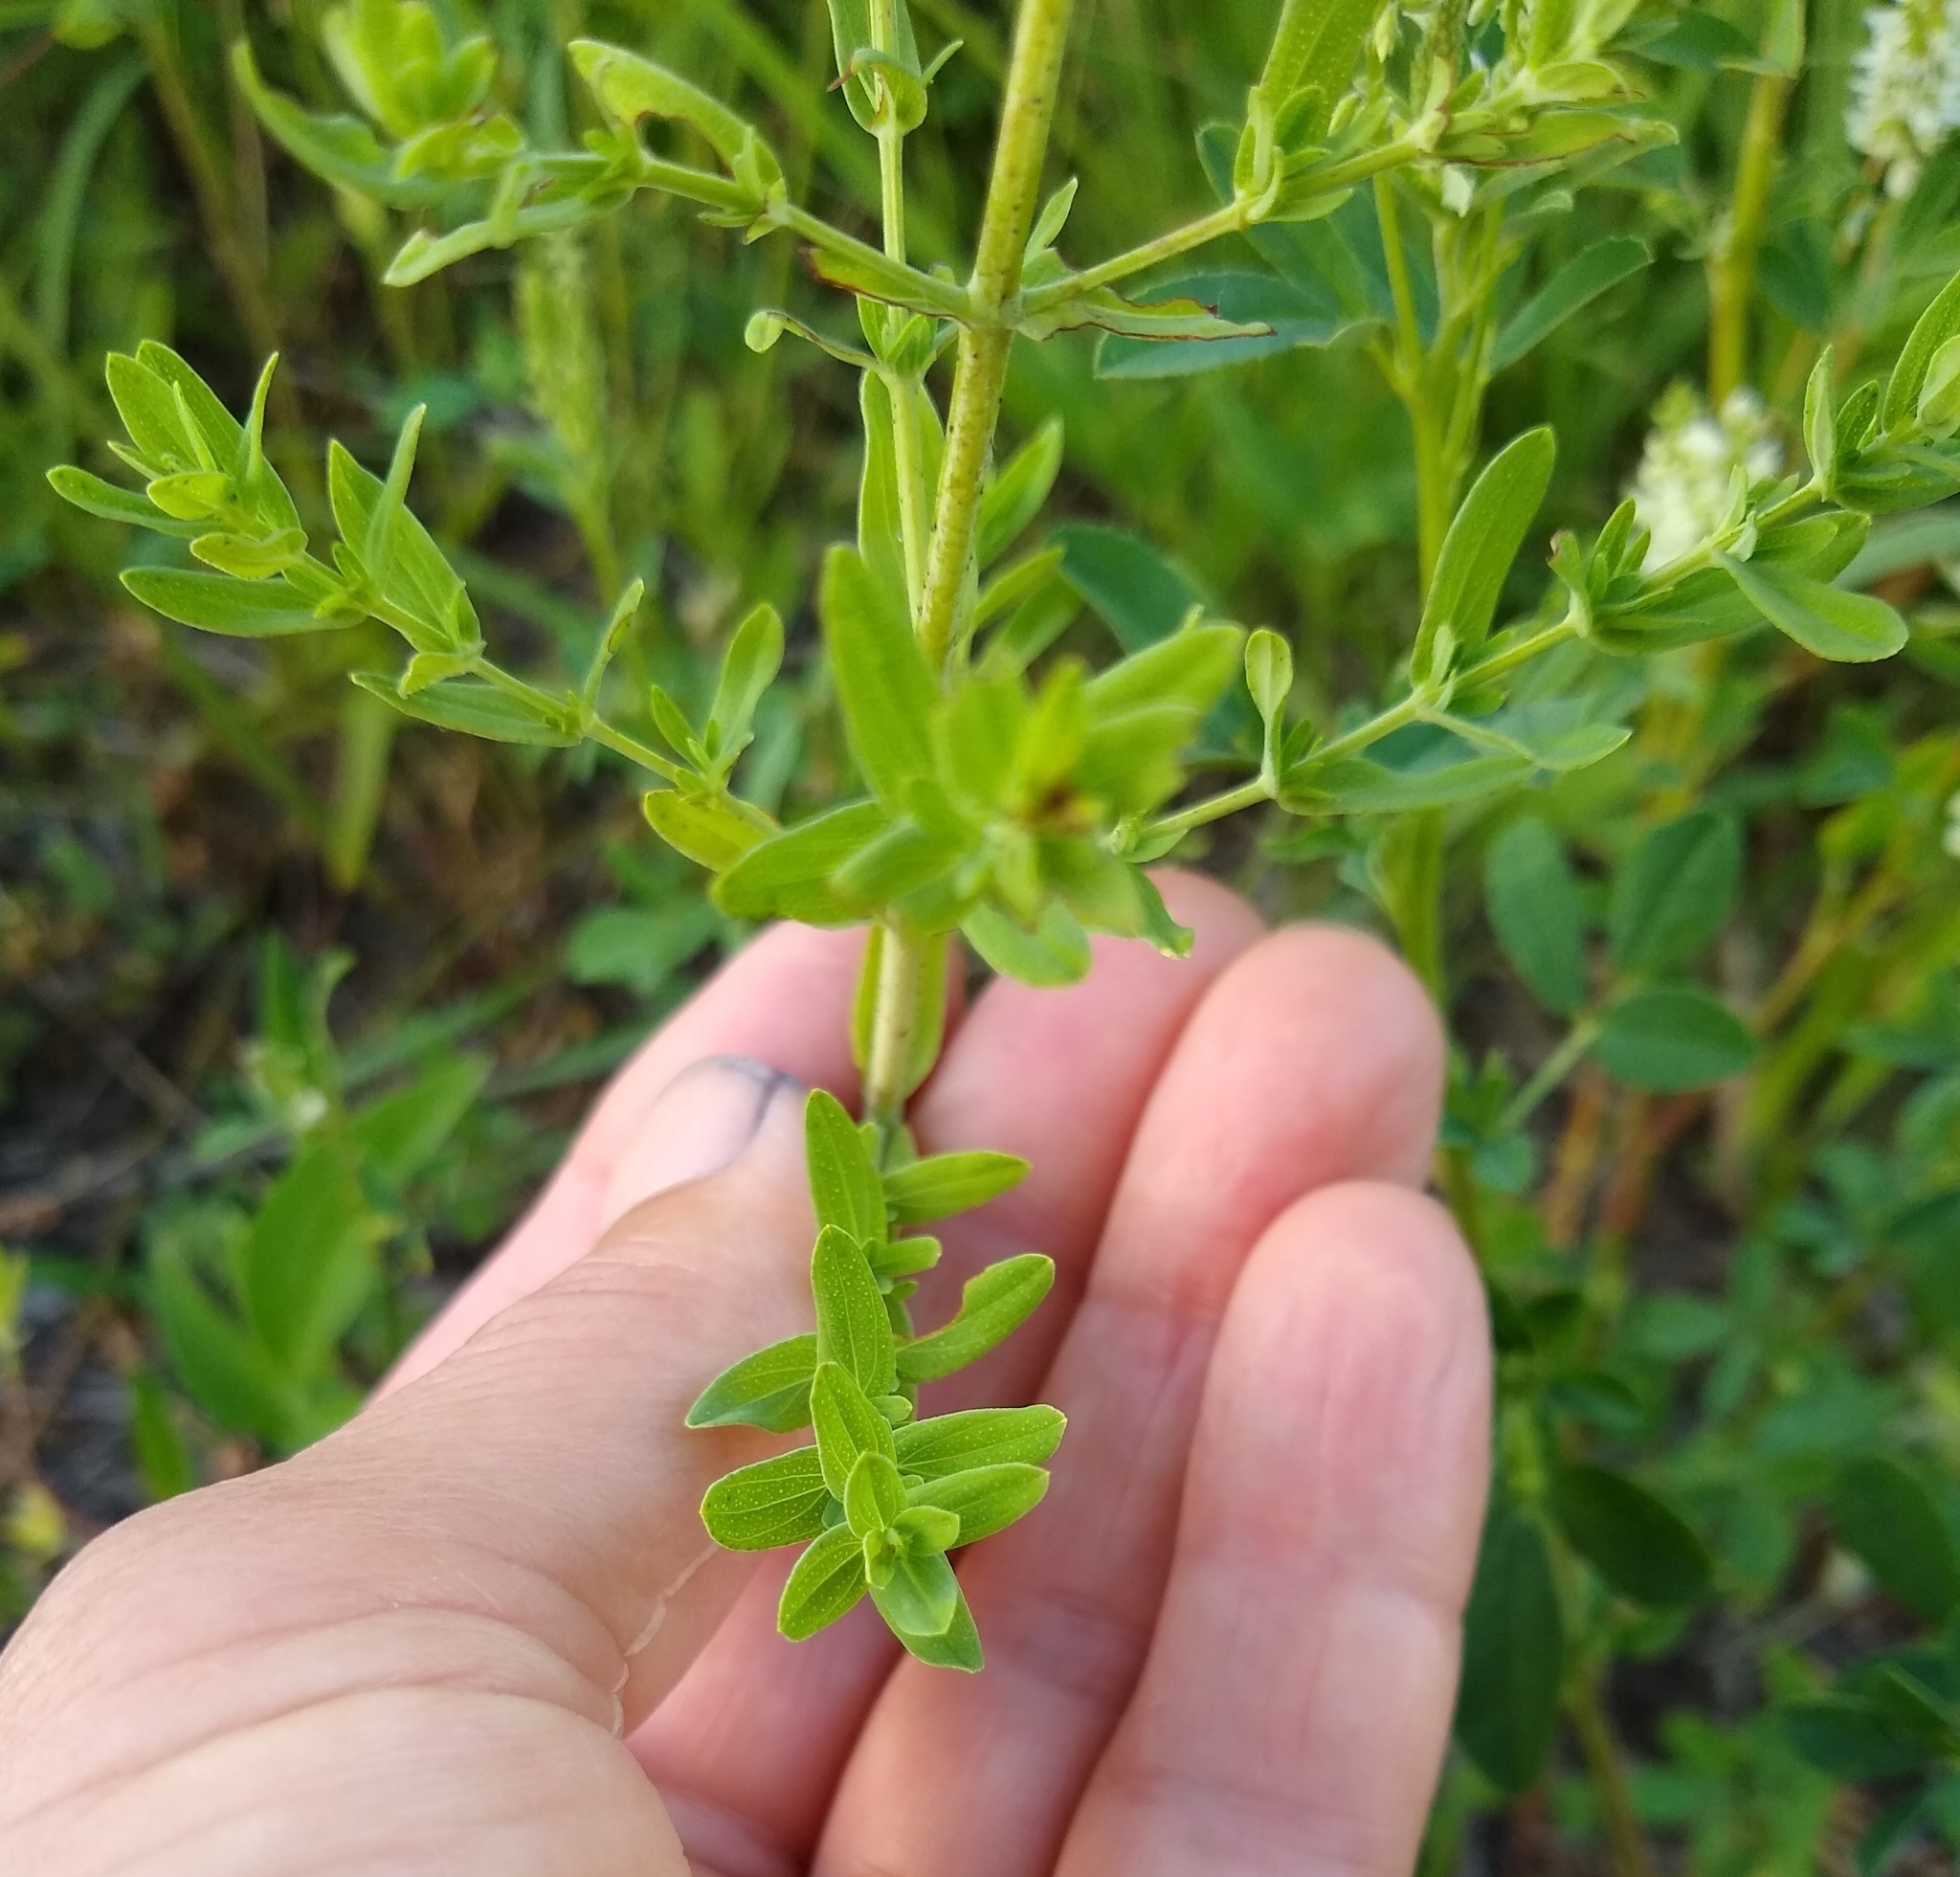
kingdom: Plantae
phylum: Tracheophyta
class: Magnoliopsida
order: Malpighiales
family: Hypericaceae
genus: Hypericum
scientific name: Hypericum perforatum
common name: Common st. johnswort
